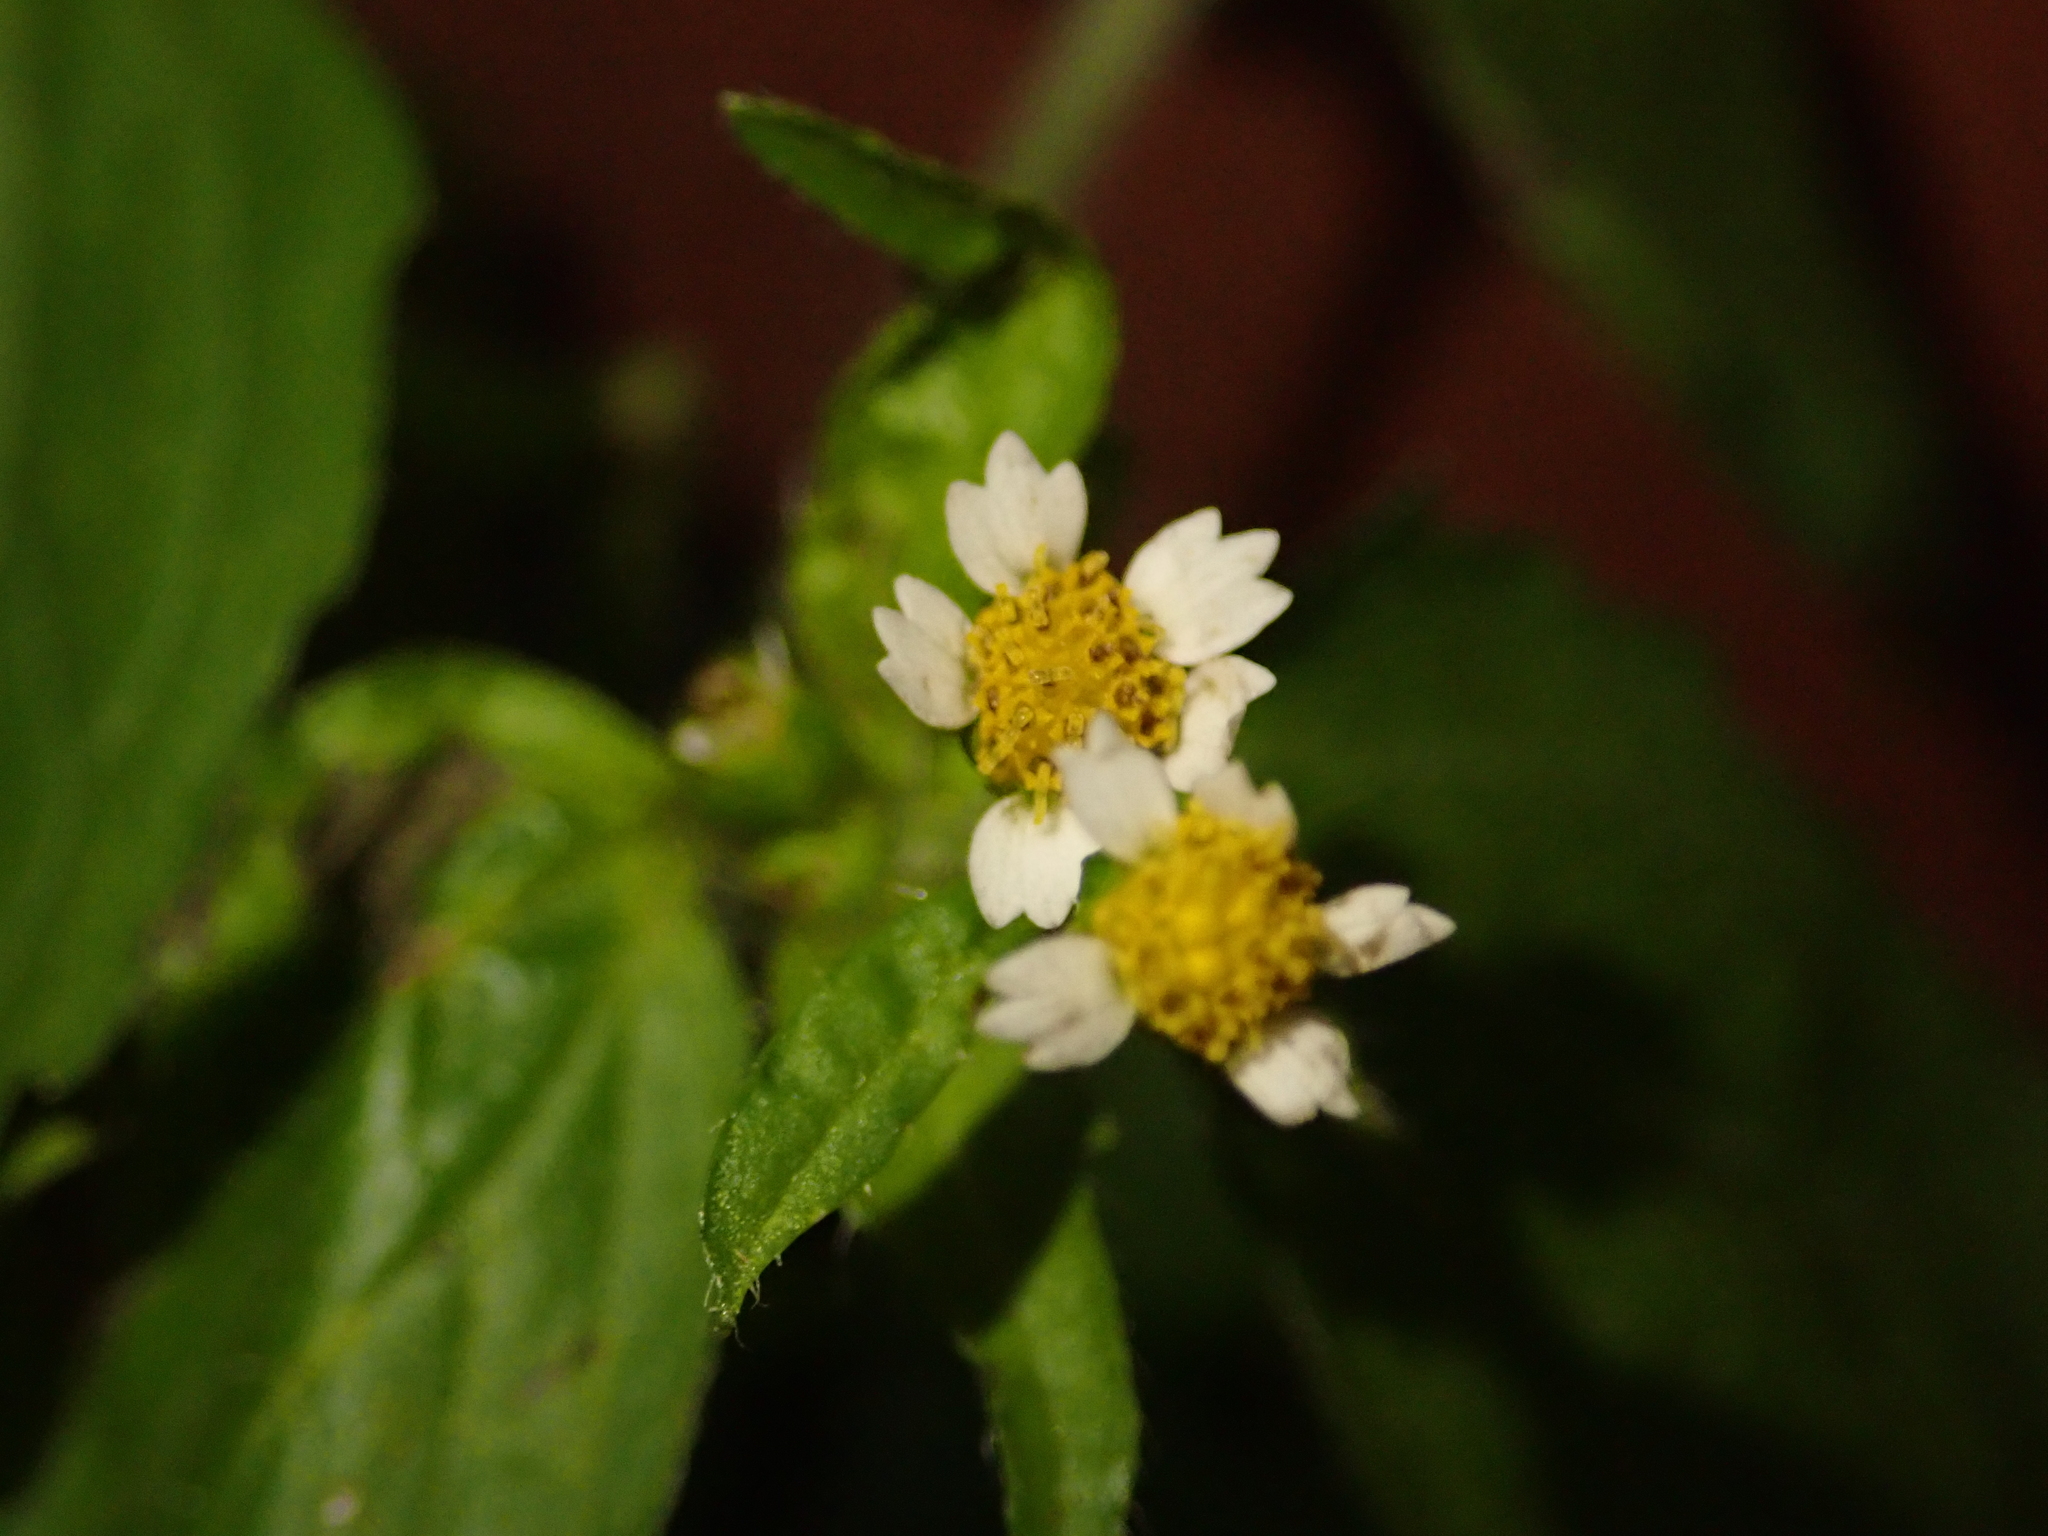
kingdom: Plantae
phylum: Tracheophyta
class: Magnoliopsida
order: Asterales
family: Asteraceae
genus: Galinsoga
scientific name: Galinsoga quadriradiata
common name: Shaggy soldier
